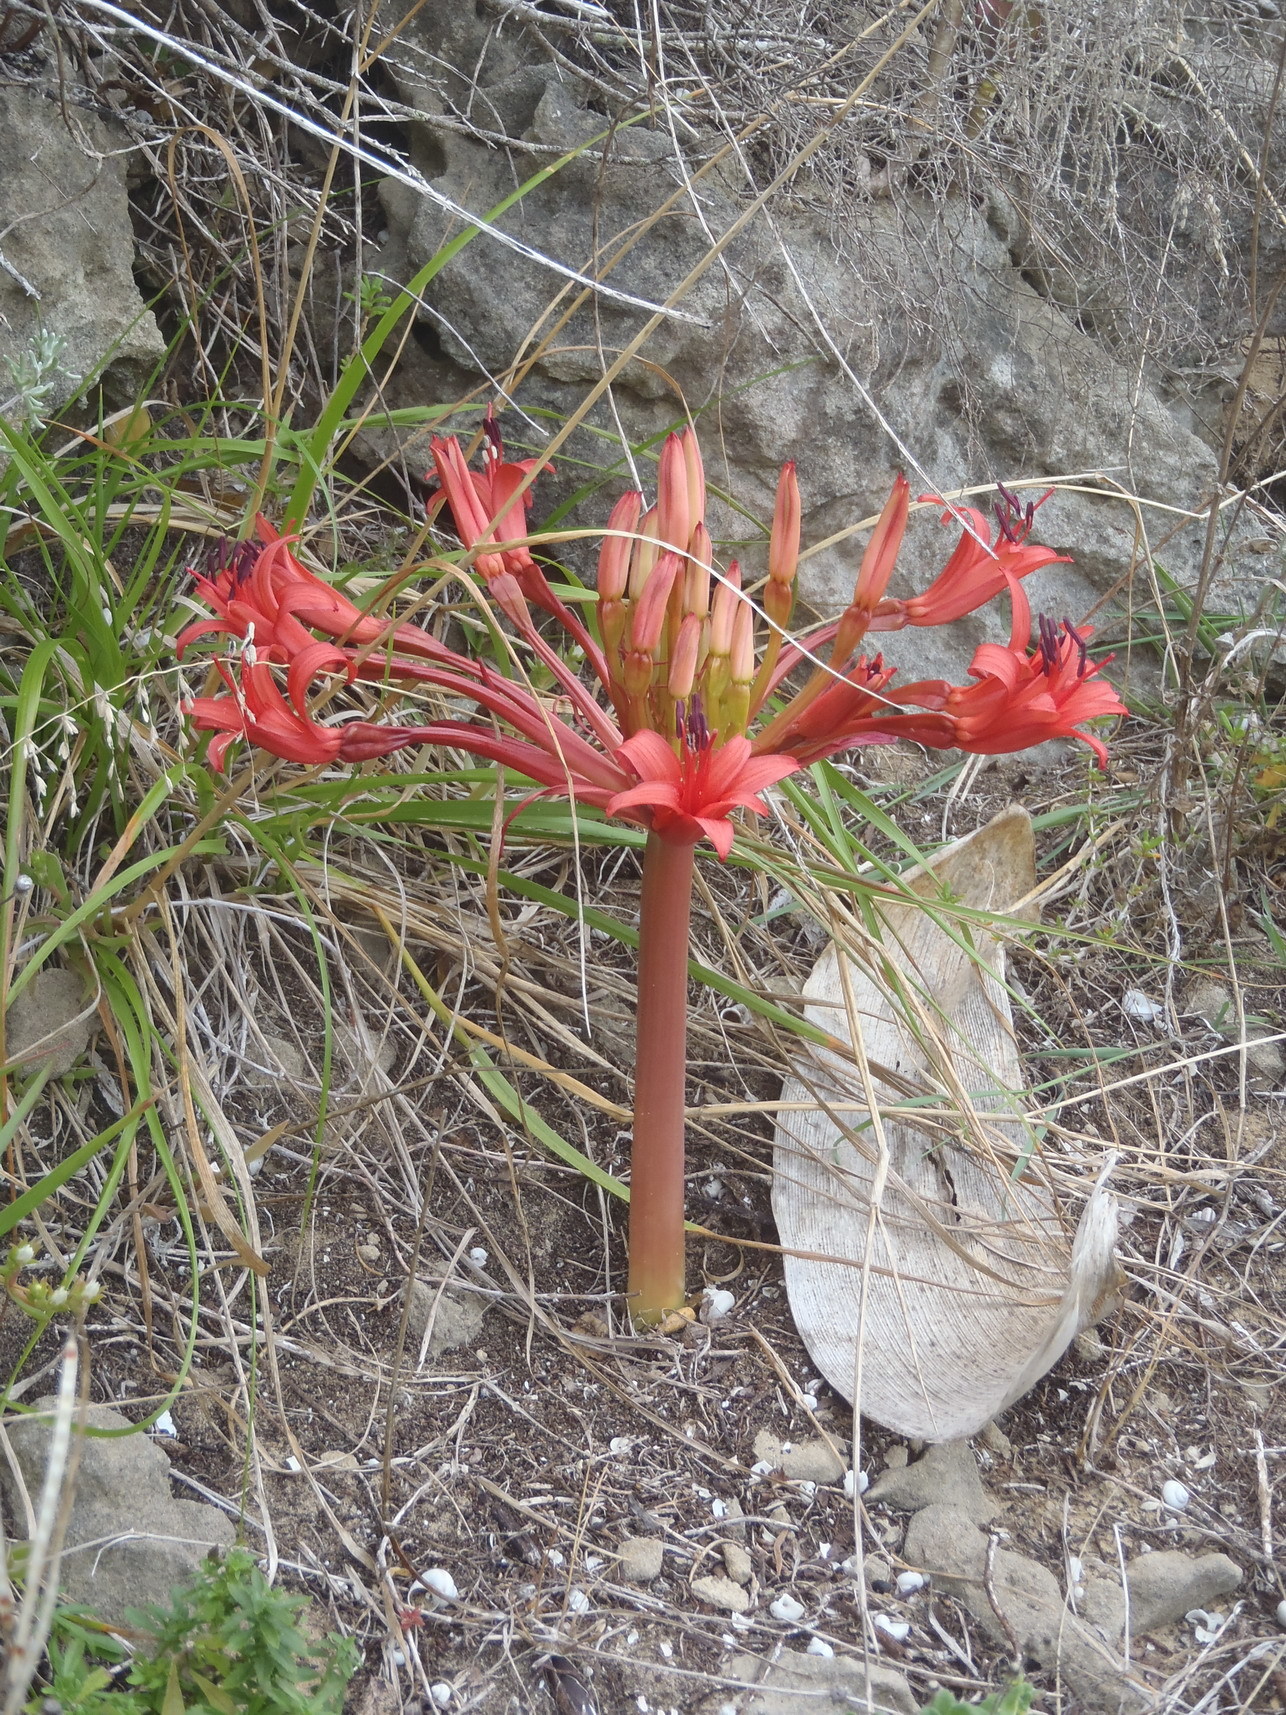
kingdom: Plantae
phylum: Tracheophyta
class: Liliopsida
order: Asparagales
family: Amaryllidaceae
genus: Brunsvigia
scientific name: Brunsvigia orientalis
